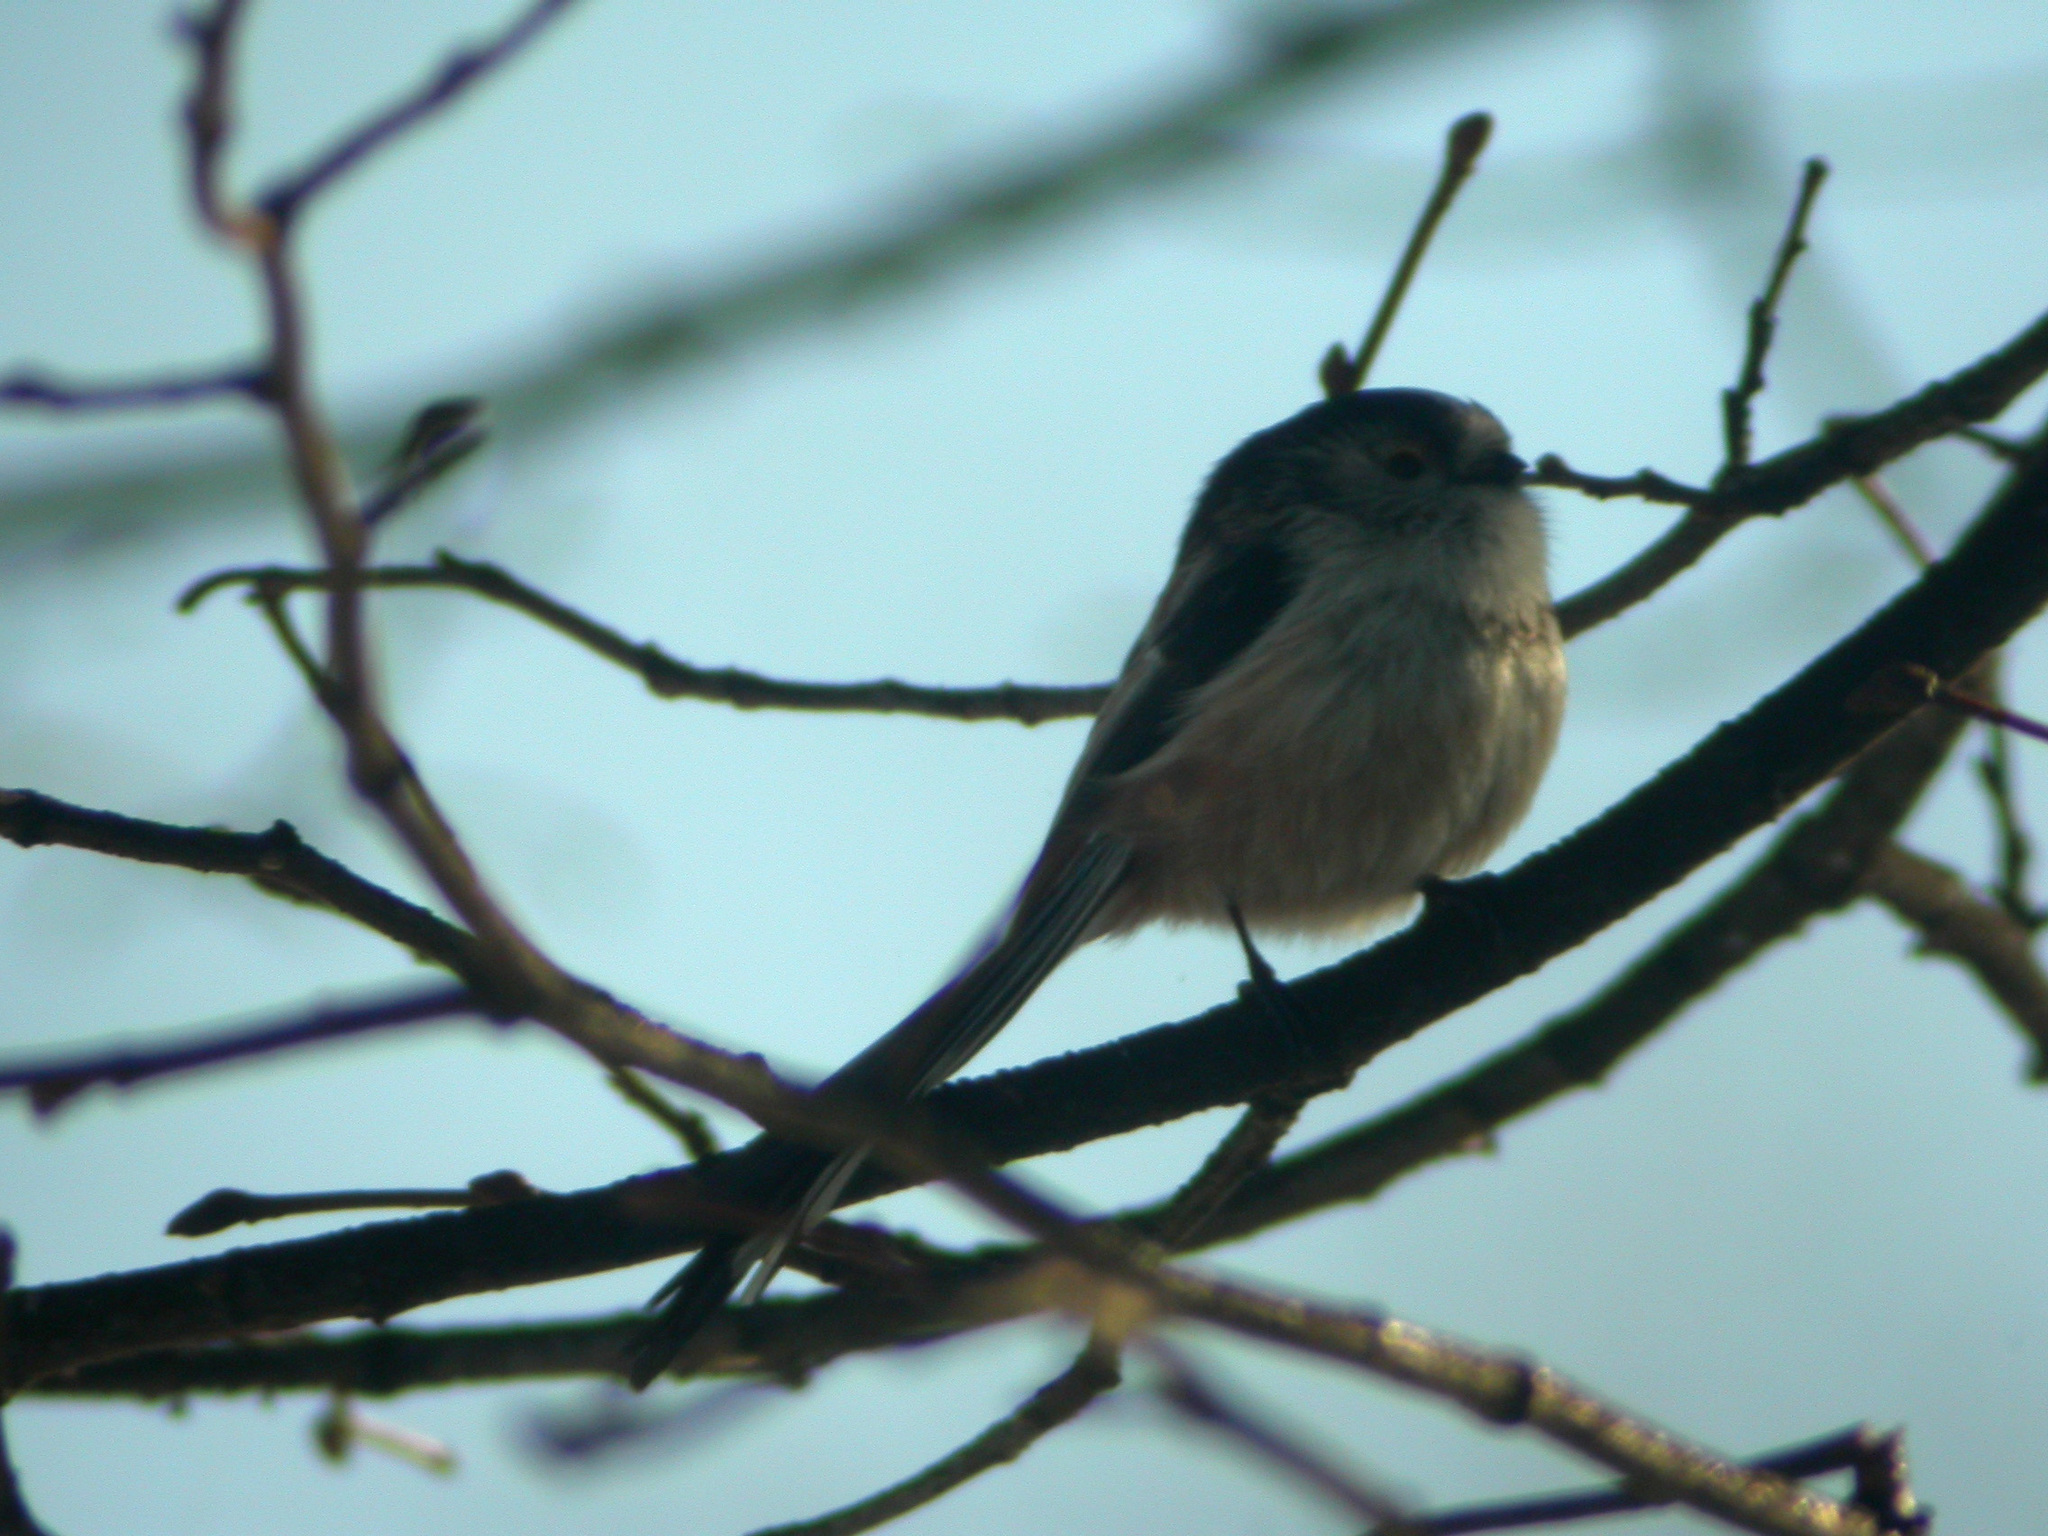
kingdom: Animalia
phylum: Chordata
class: Aves
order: Passeriformes
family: Aegithalidae
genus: Aegithalos
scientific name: Aegithalos caudatus
